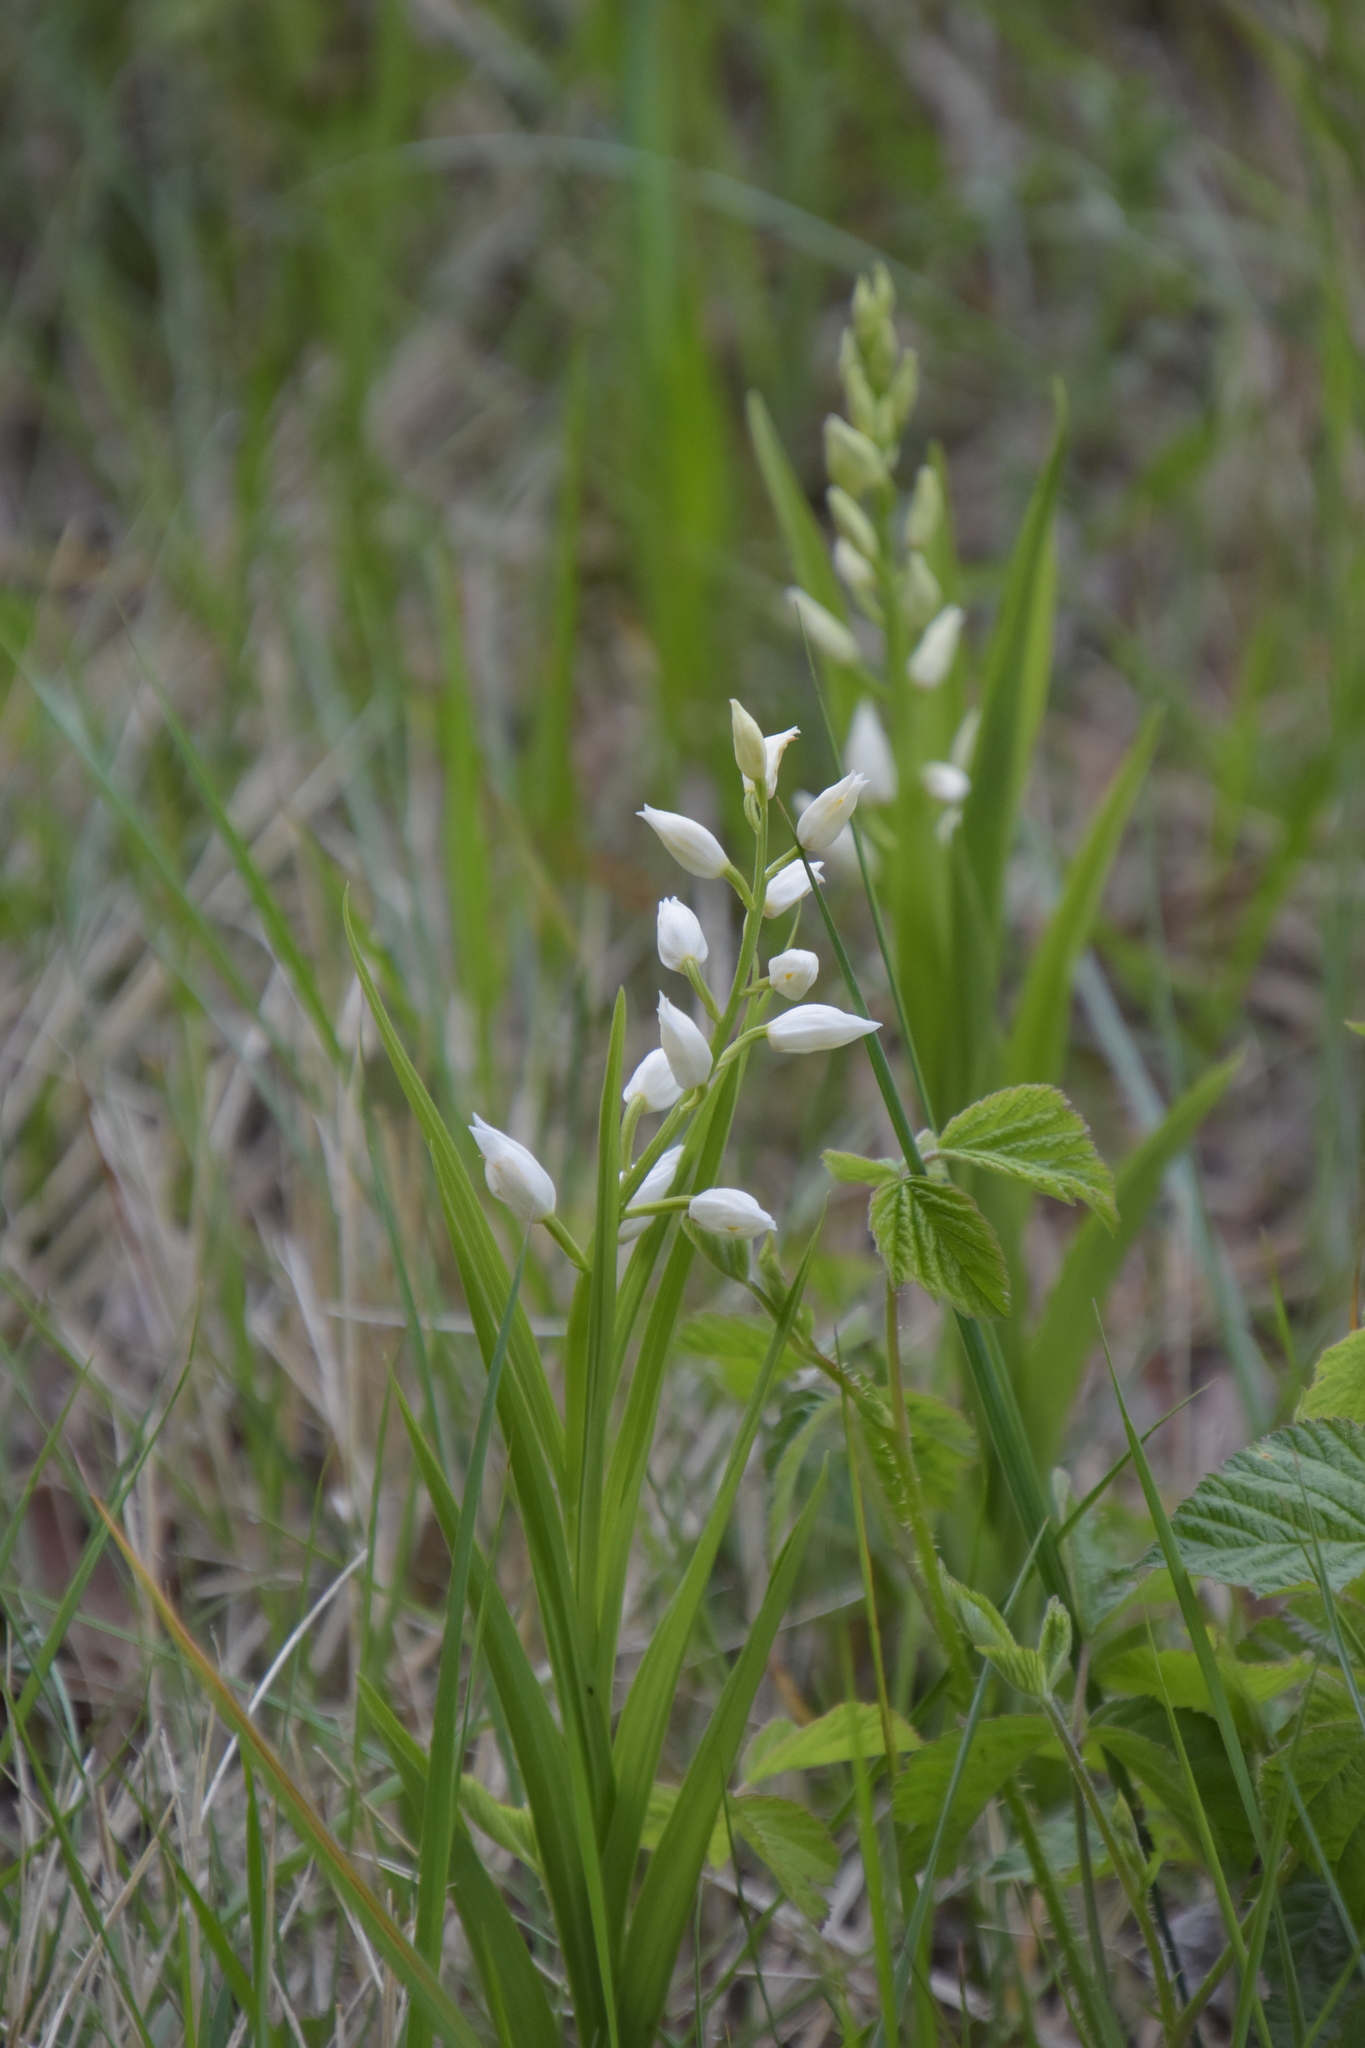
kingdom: Plantae
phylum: Tracheophyta
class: Liliopsida
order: Asparagales
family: Orchidaceae
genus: Cephalanthera
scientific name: Cephalanthera longifolia
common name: Narrow-leaved helleborine
